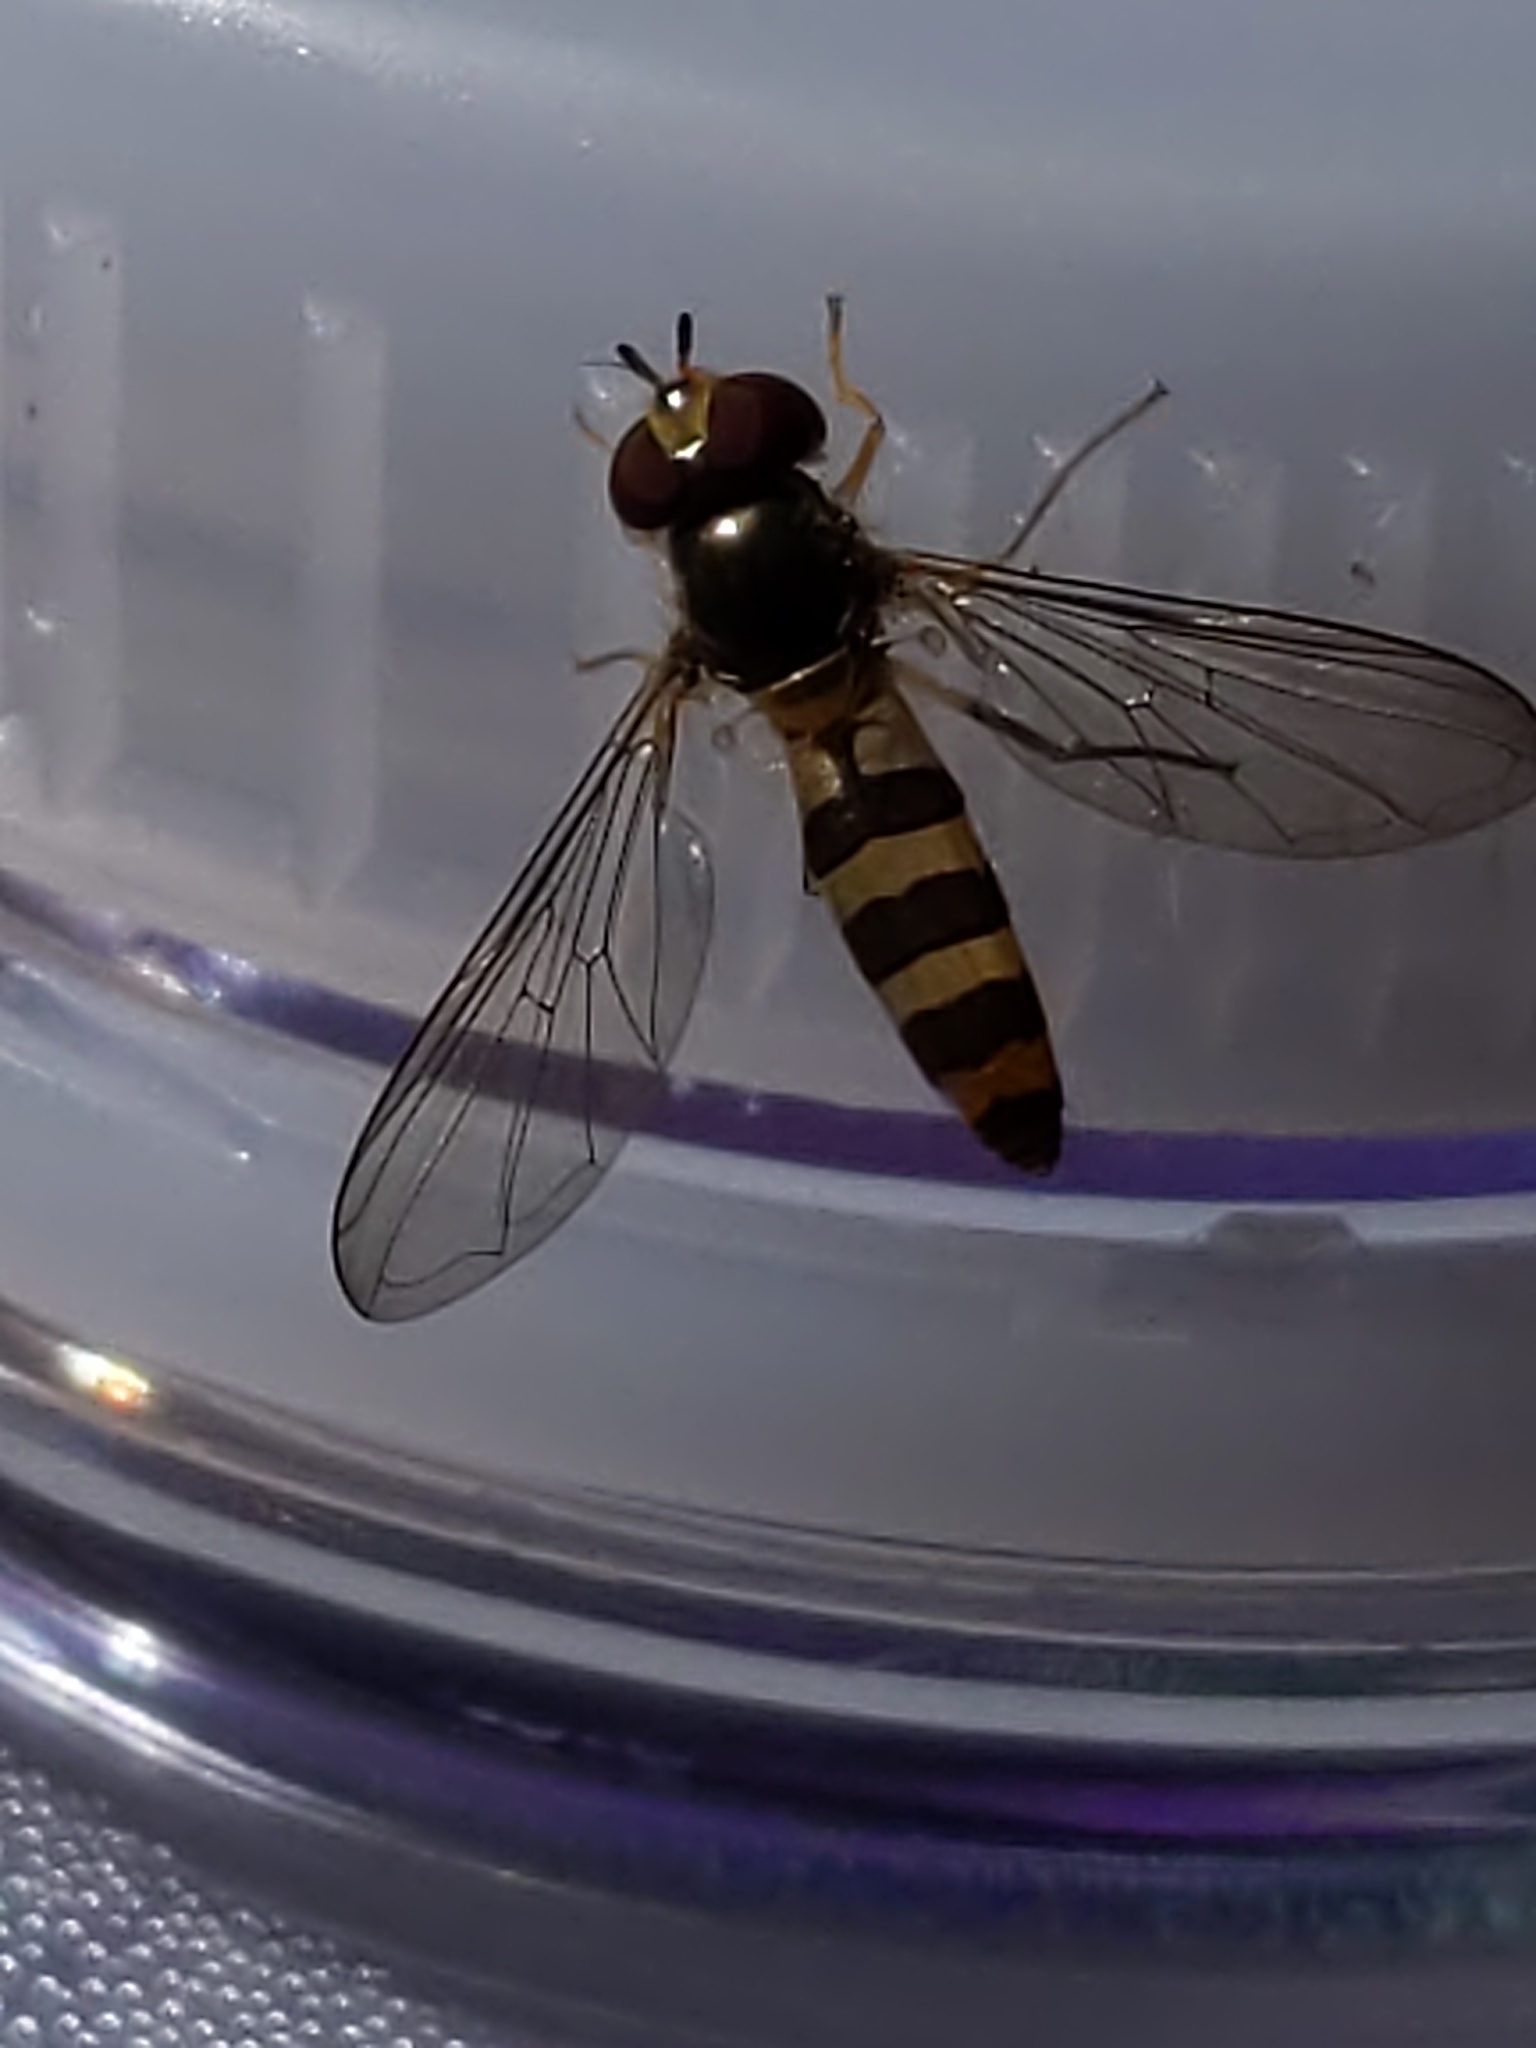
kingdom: Animalia
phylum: Arthropoda
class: Insecta
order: Diptera
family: Syrphidae
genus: Meliscaeva
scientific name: Meliscaeva cinctella
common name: American thintail fly
